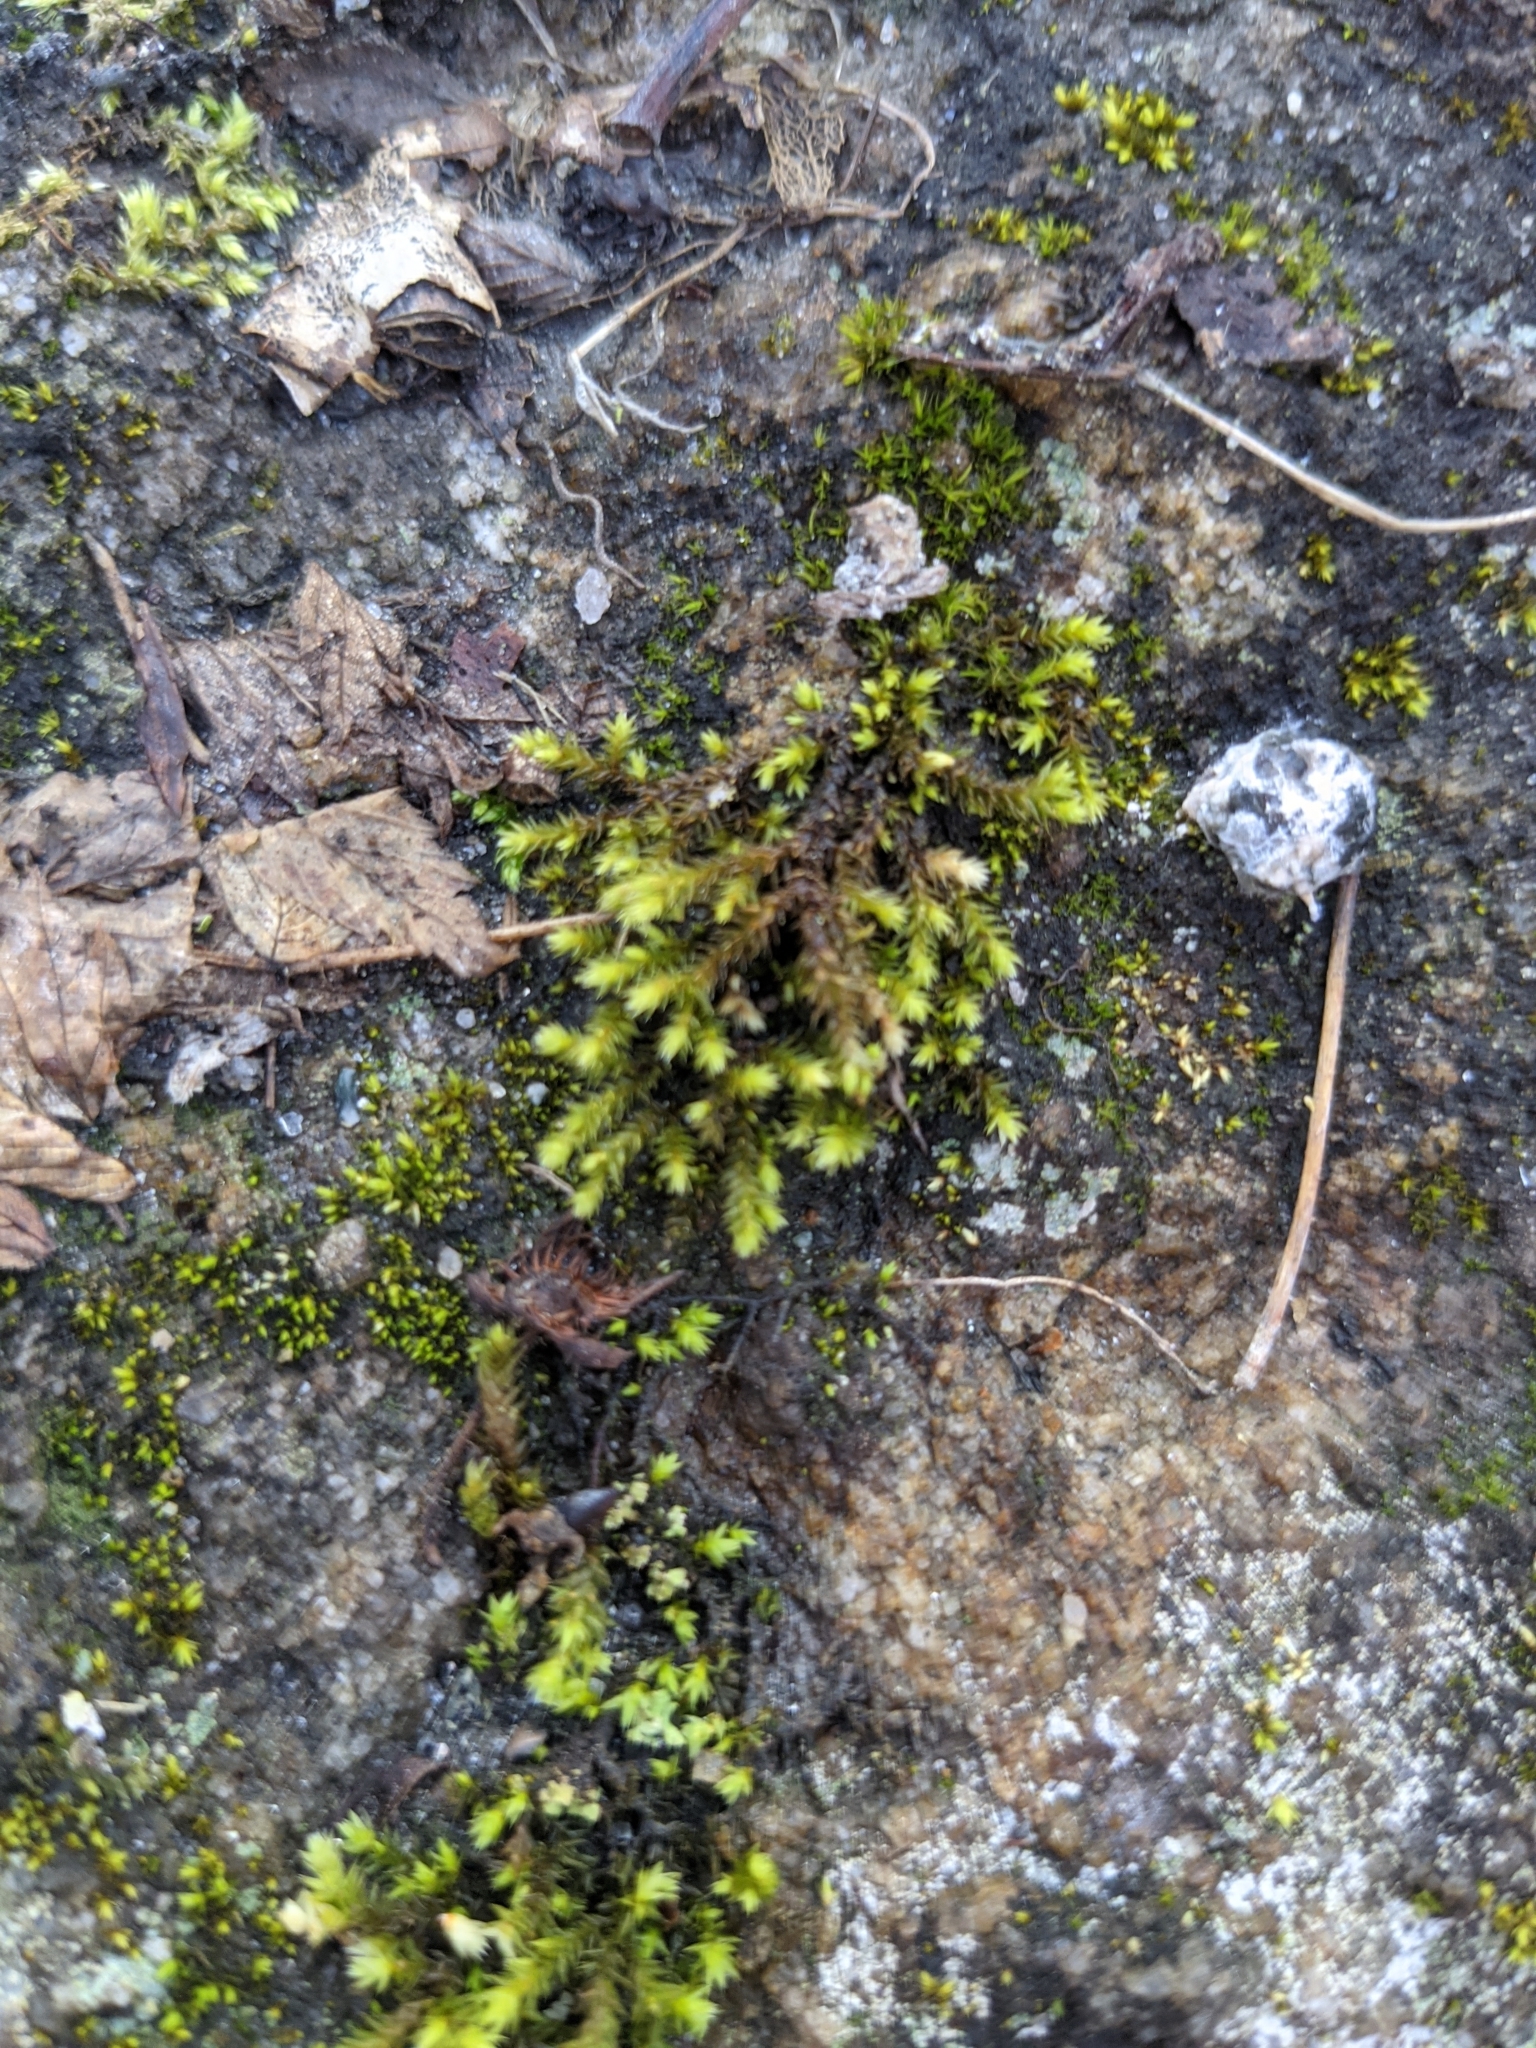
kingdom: Plantae
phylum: Bryophyta
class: Bryopsida
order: Hedwigiales
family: Hedwigiaceae
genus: Hedwigia
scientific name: Hedwigia ciliata
